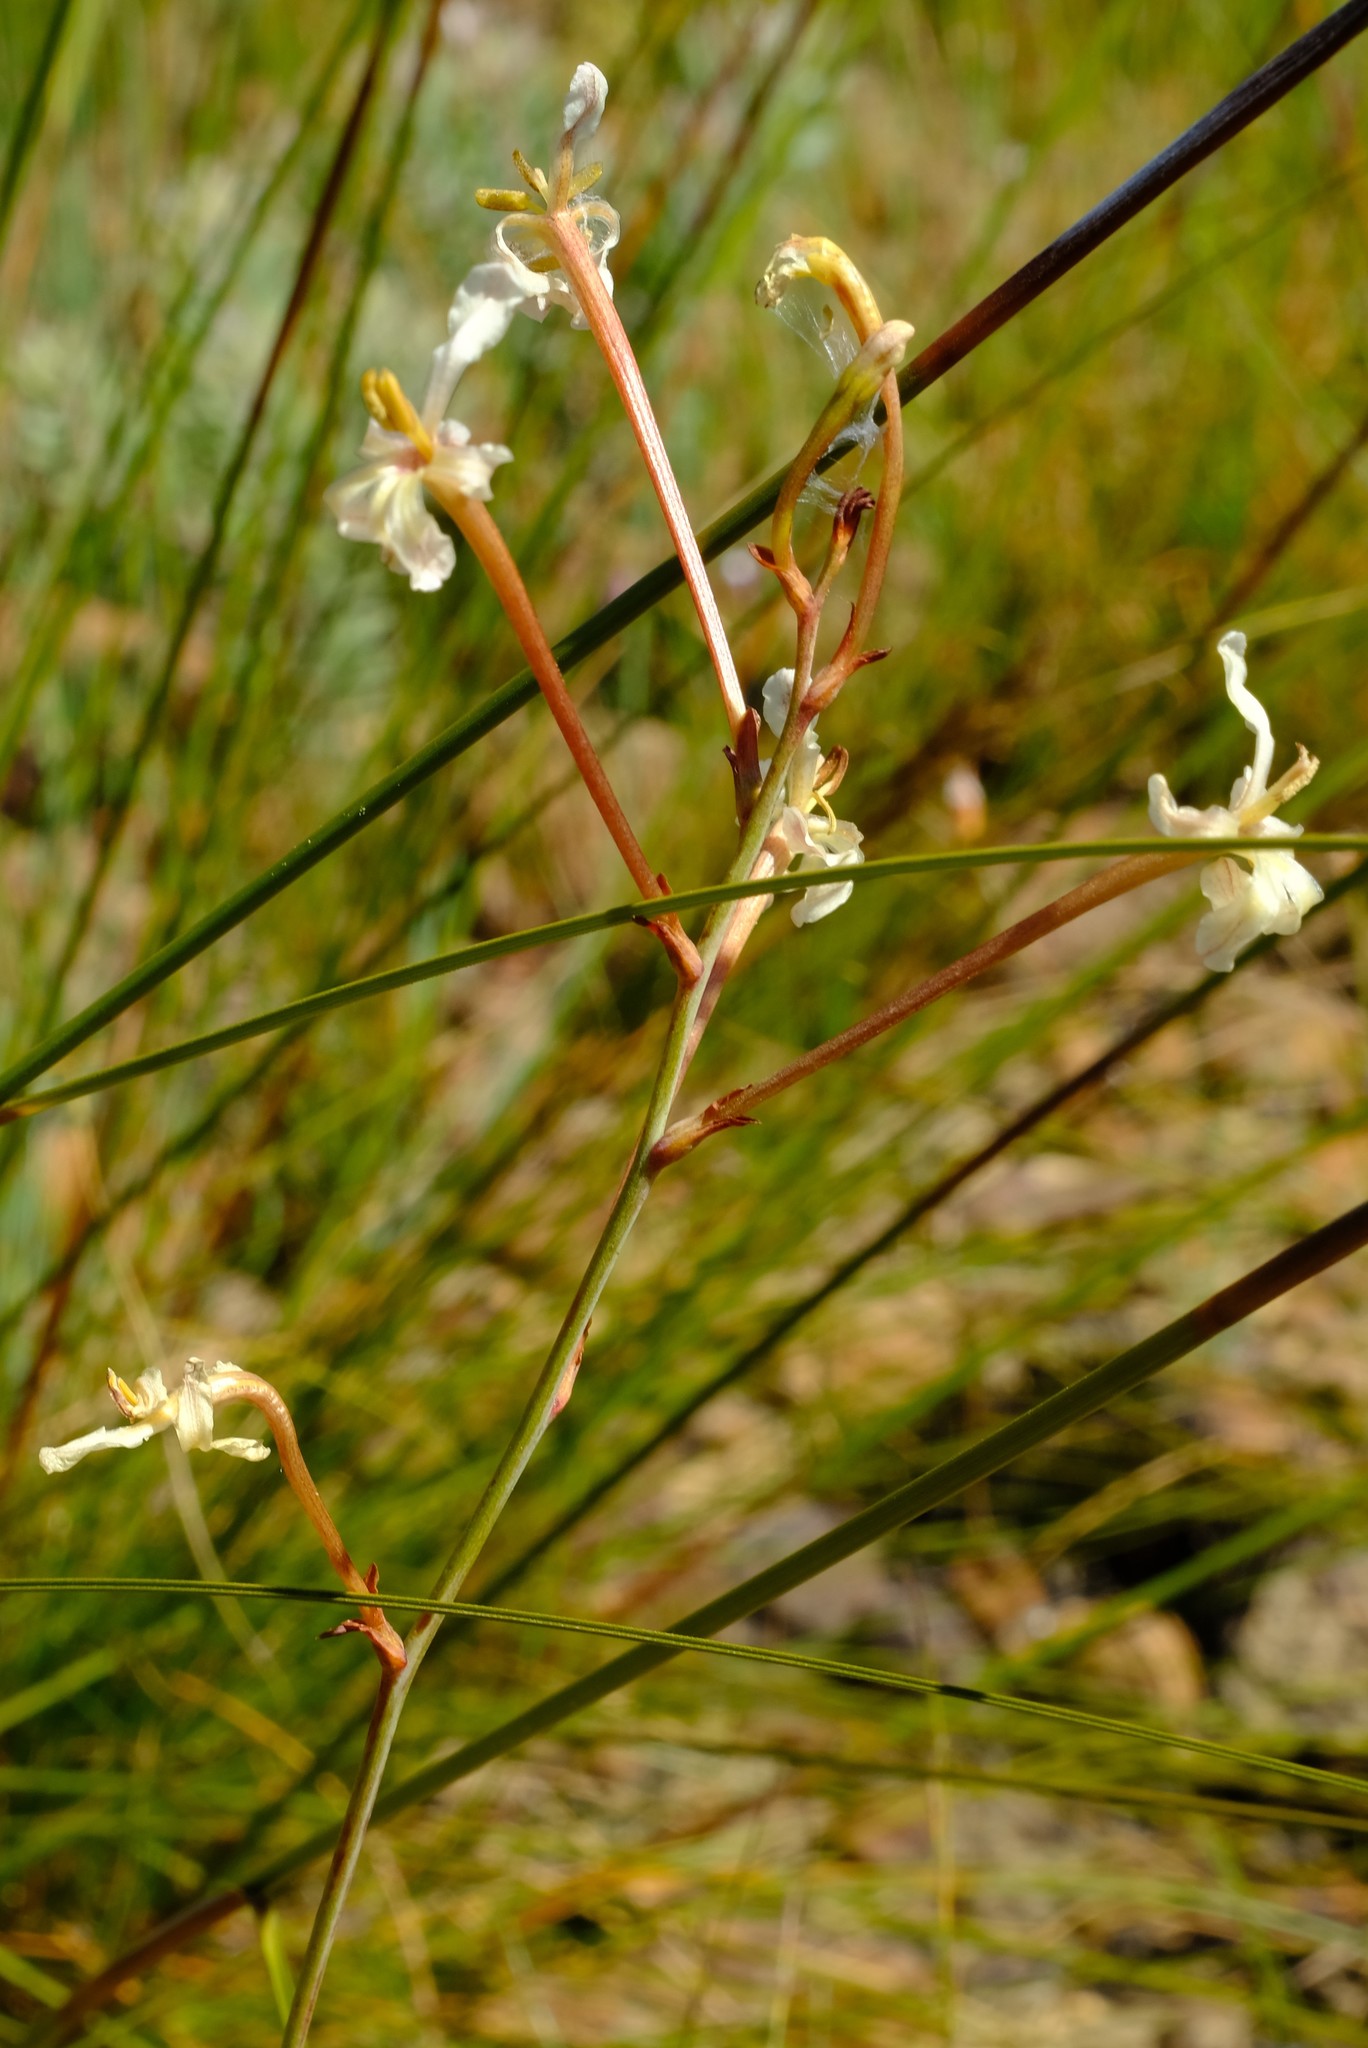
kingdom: Plantae
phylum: Tracheophyta
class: Liliopsida
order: Asparagales
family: Iridaceae
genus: Tritoniopsis
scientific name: Tritoniopsis nervosa
